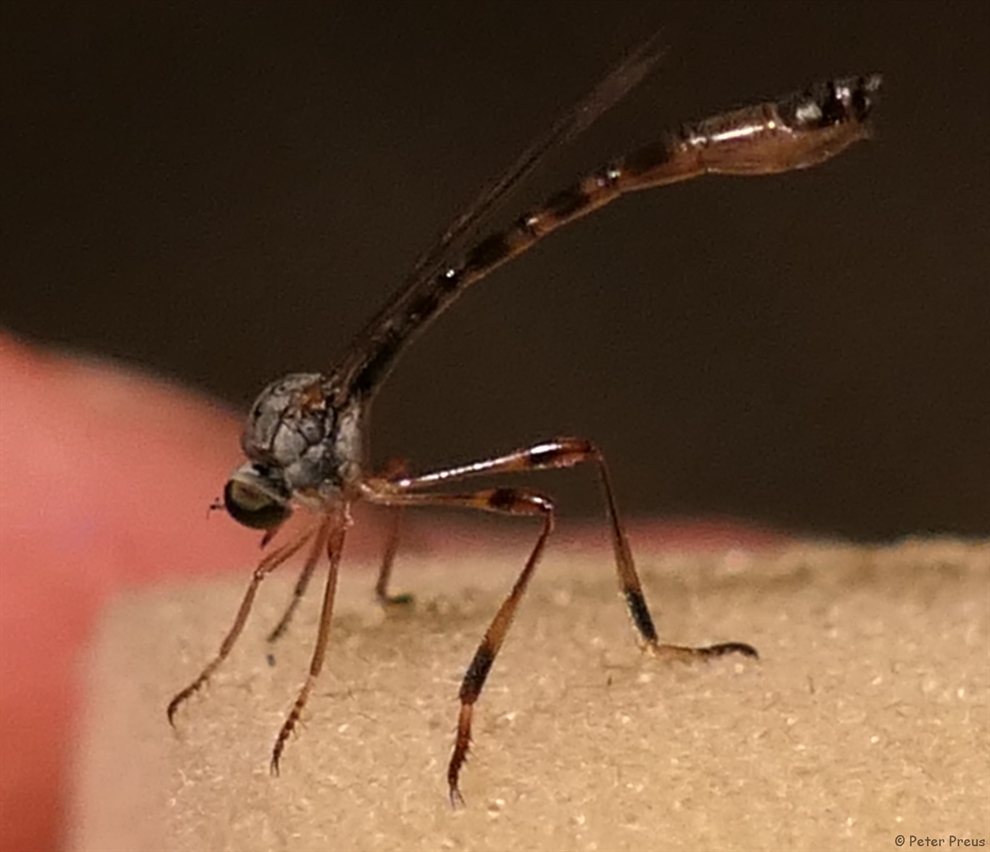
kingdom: Animalia
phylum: Arthropoda
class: Insecta
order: Diptera
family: Asilidae
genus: Leptogaster
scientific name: Leptogaster subtilis
